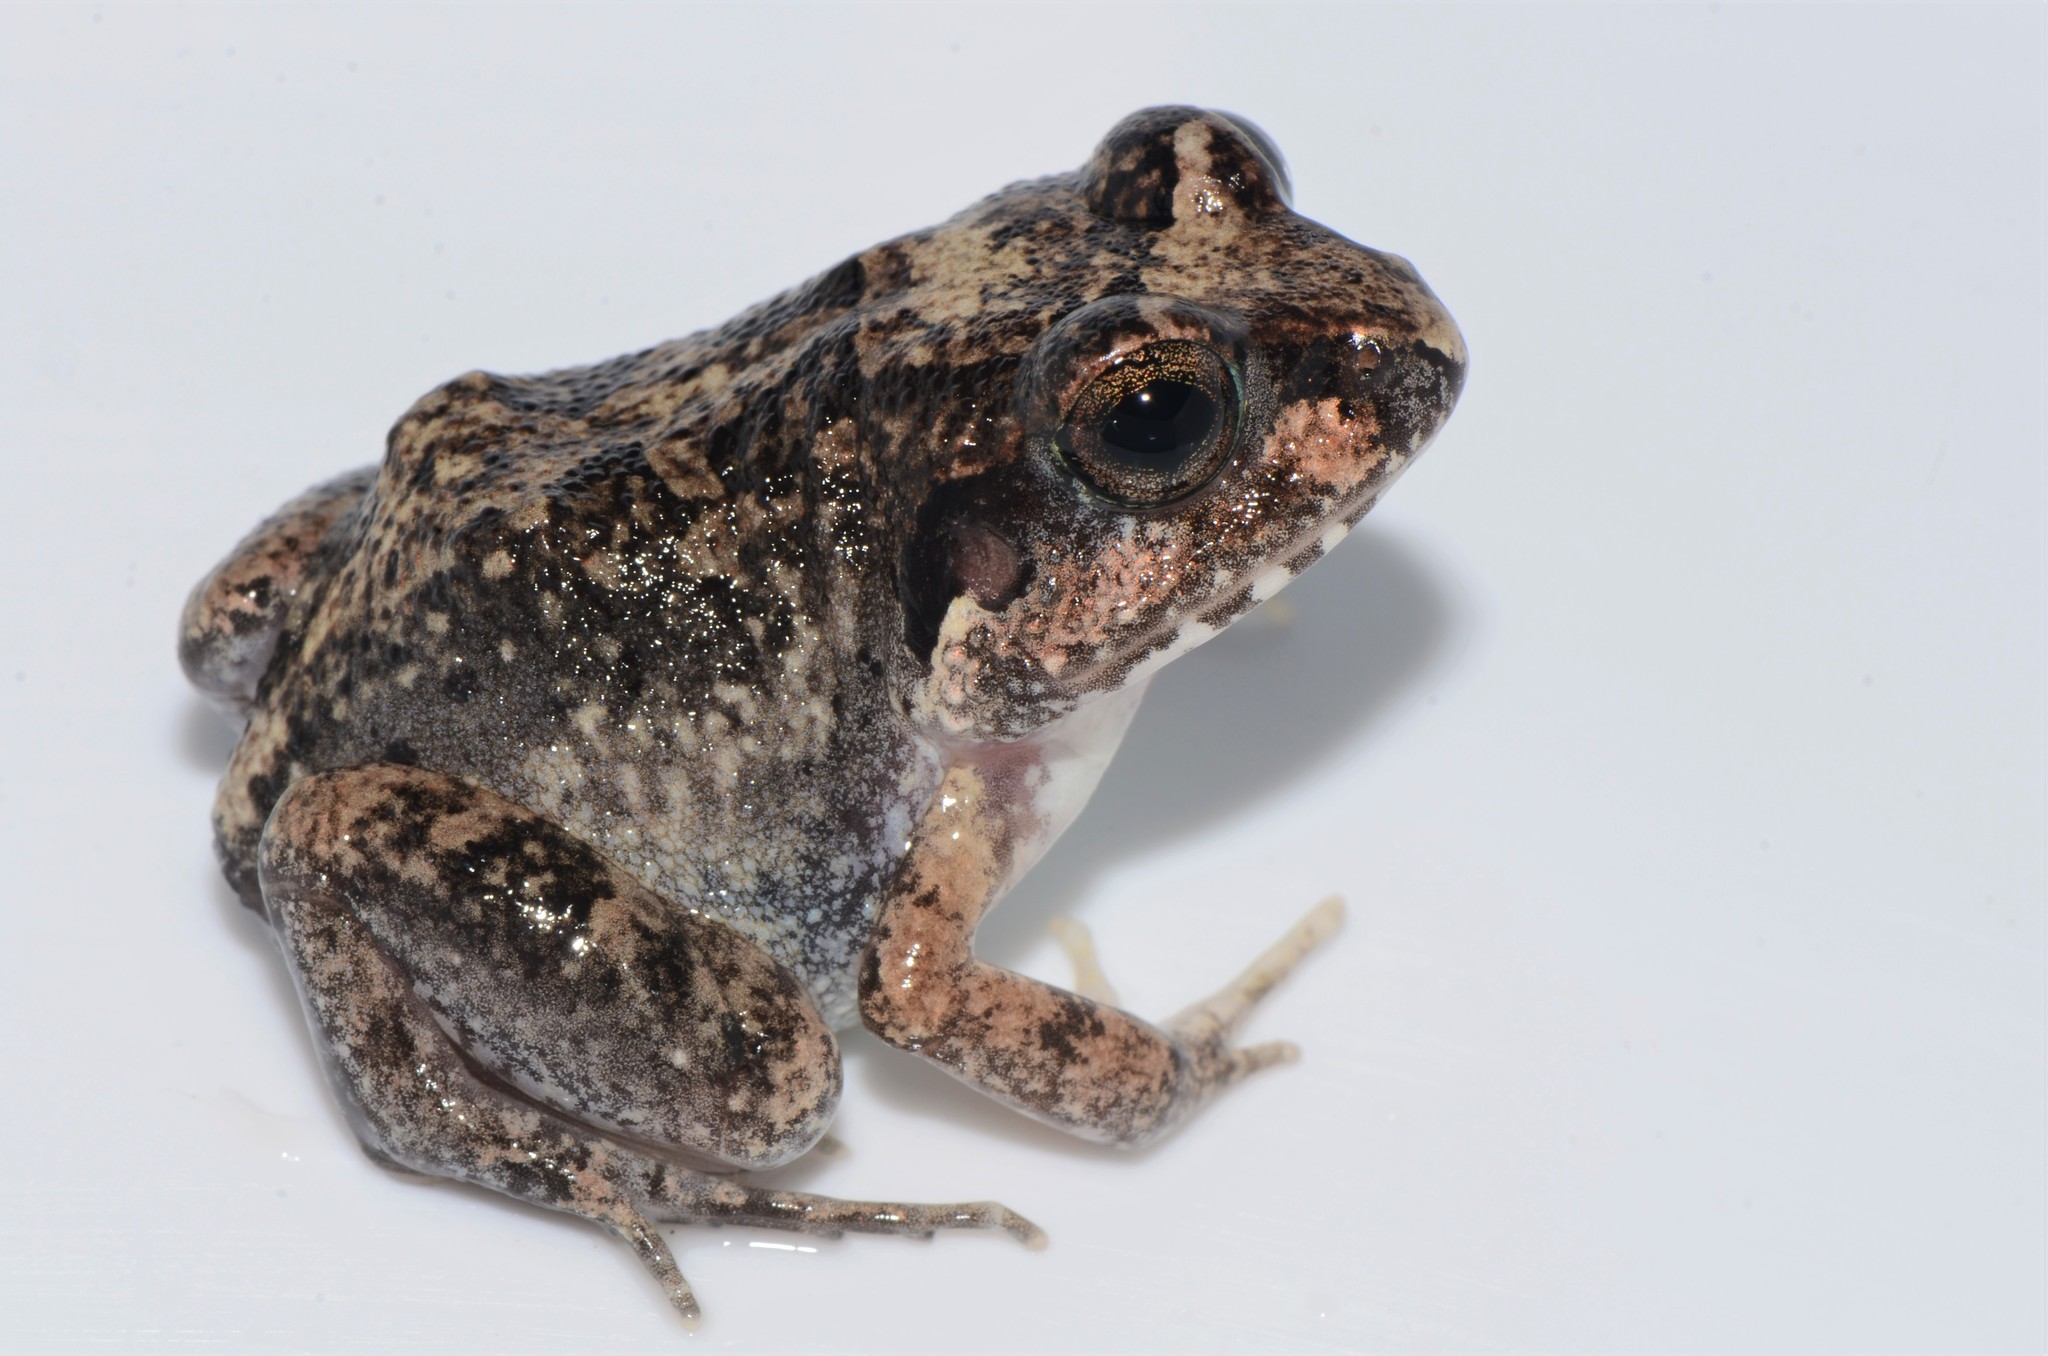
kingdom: Animalia
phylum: Chordata
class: Amphibia
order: Anura
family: Arthroleptidae
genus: Arthroleptis
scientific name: Arthroleptis stenodactylus
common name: Dune squeaker
